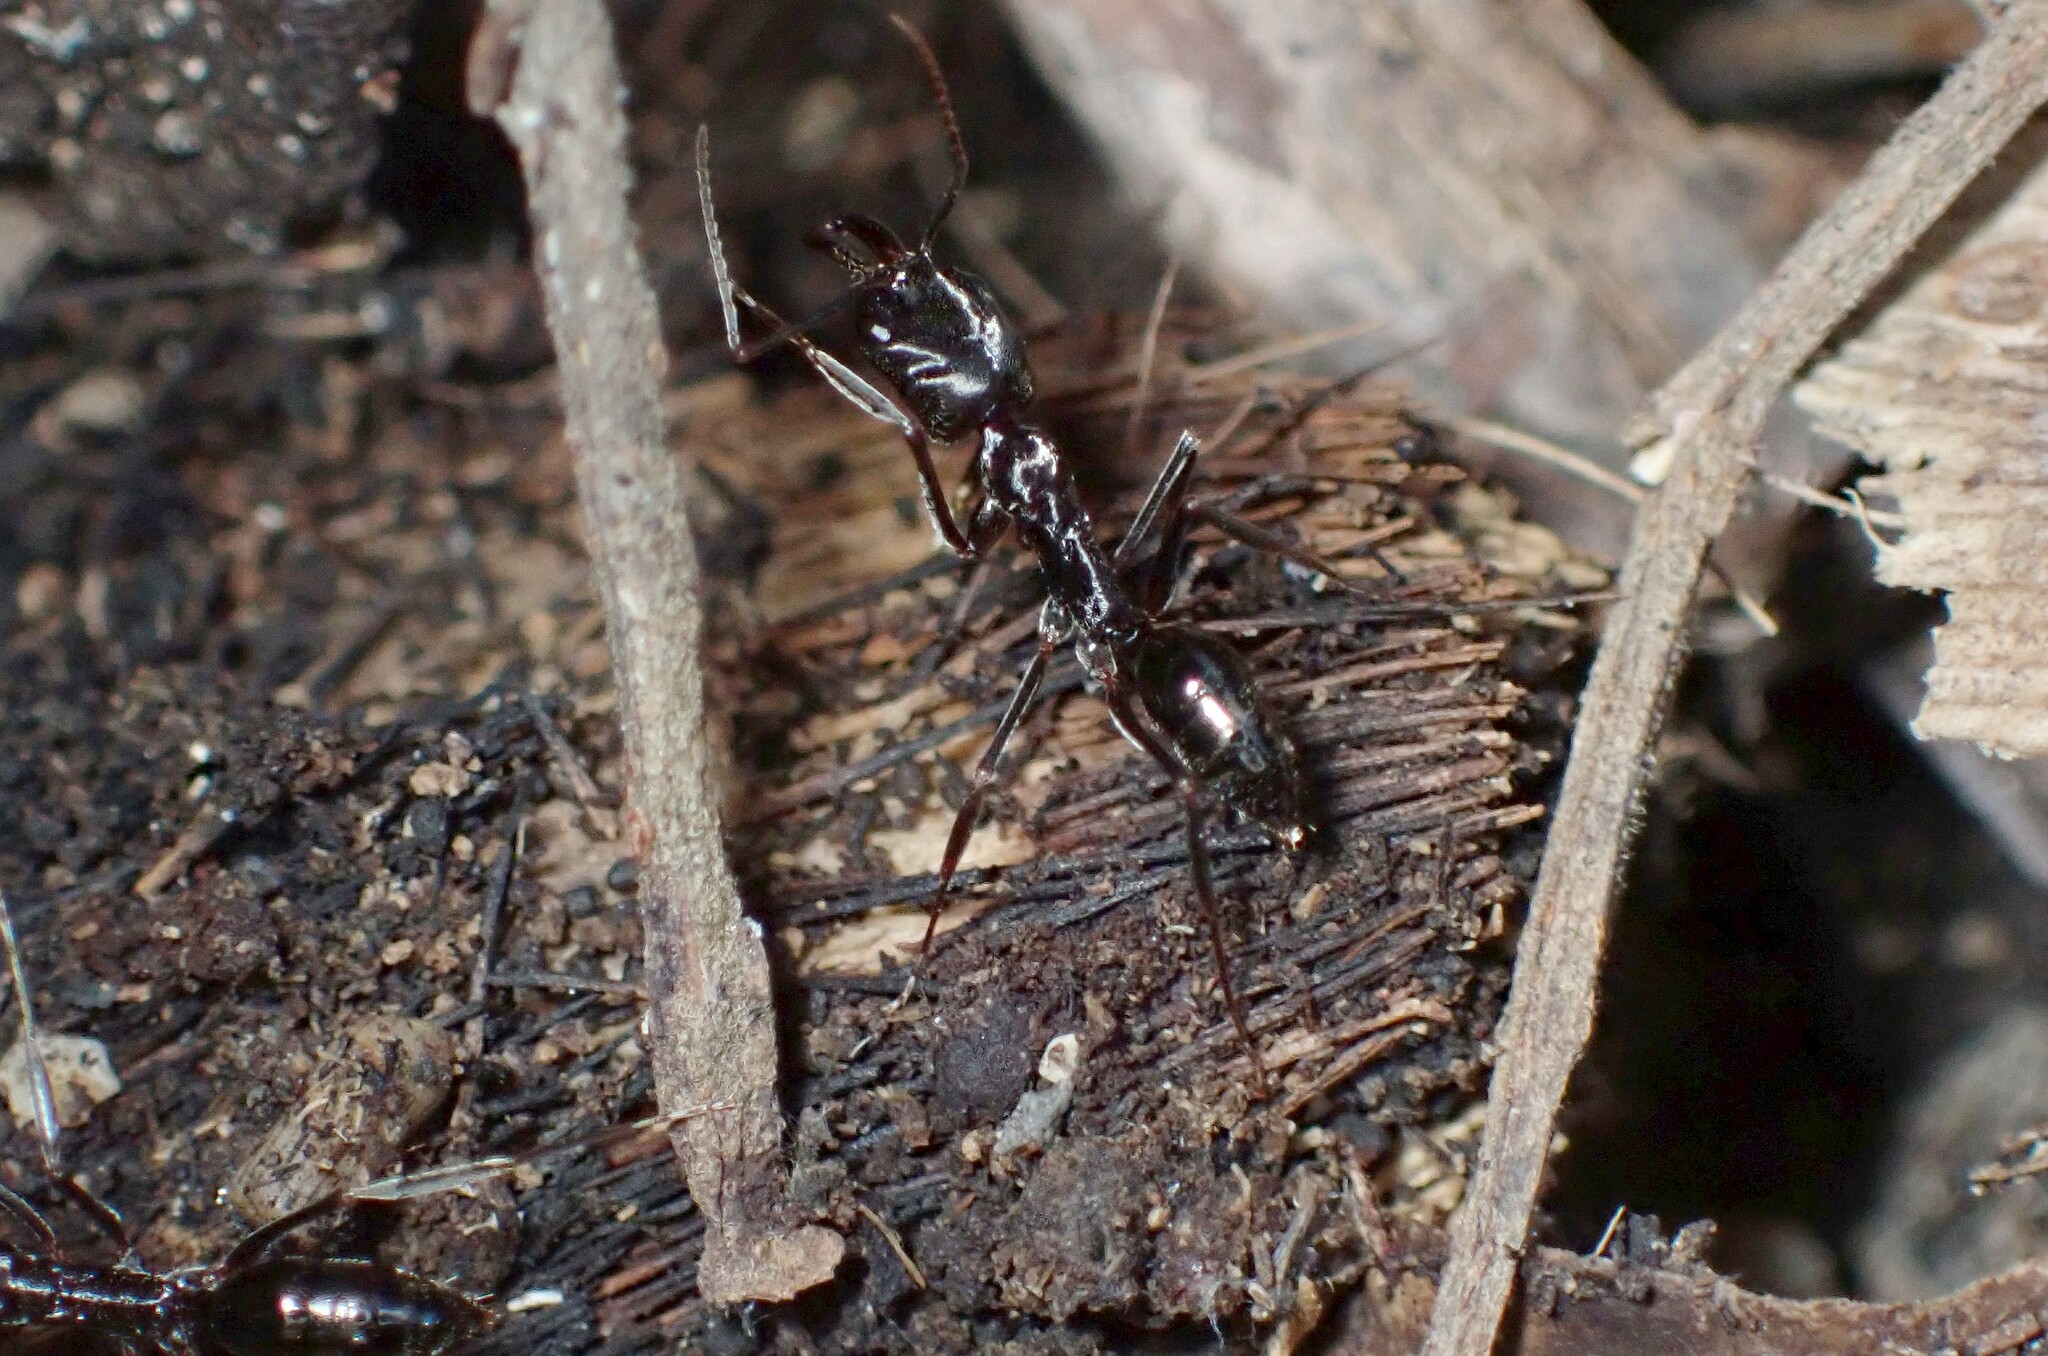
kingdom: Animalia
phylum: Arthropoda
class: Insecta
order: Hymenoptera
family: Formicidae
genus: Odontomachus
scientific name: Odontomachus simillimus
